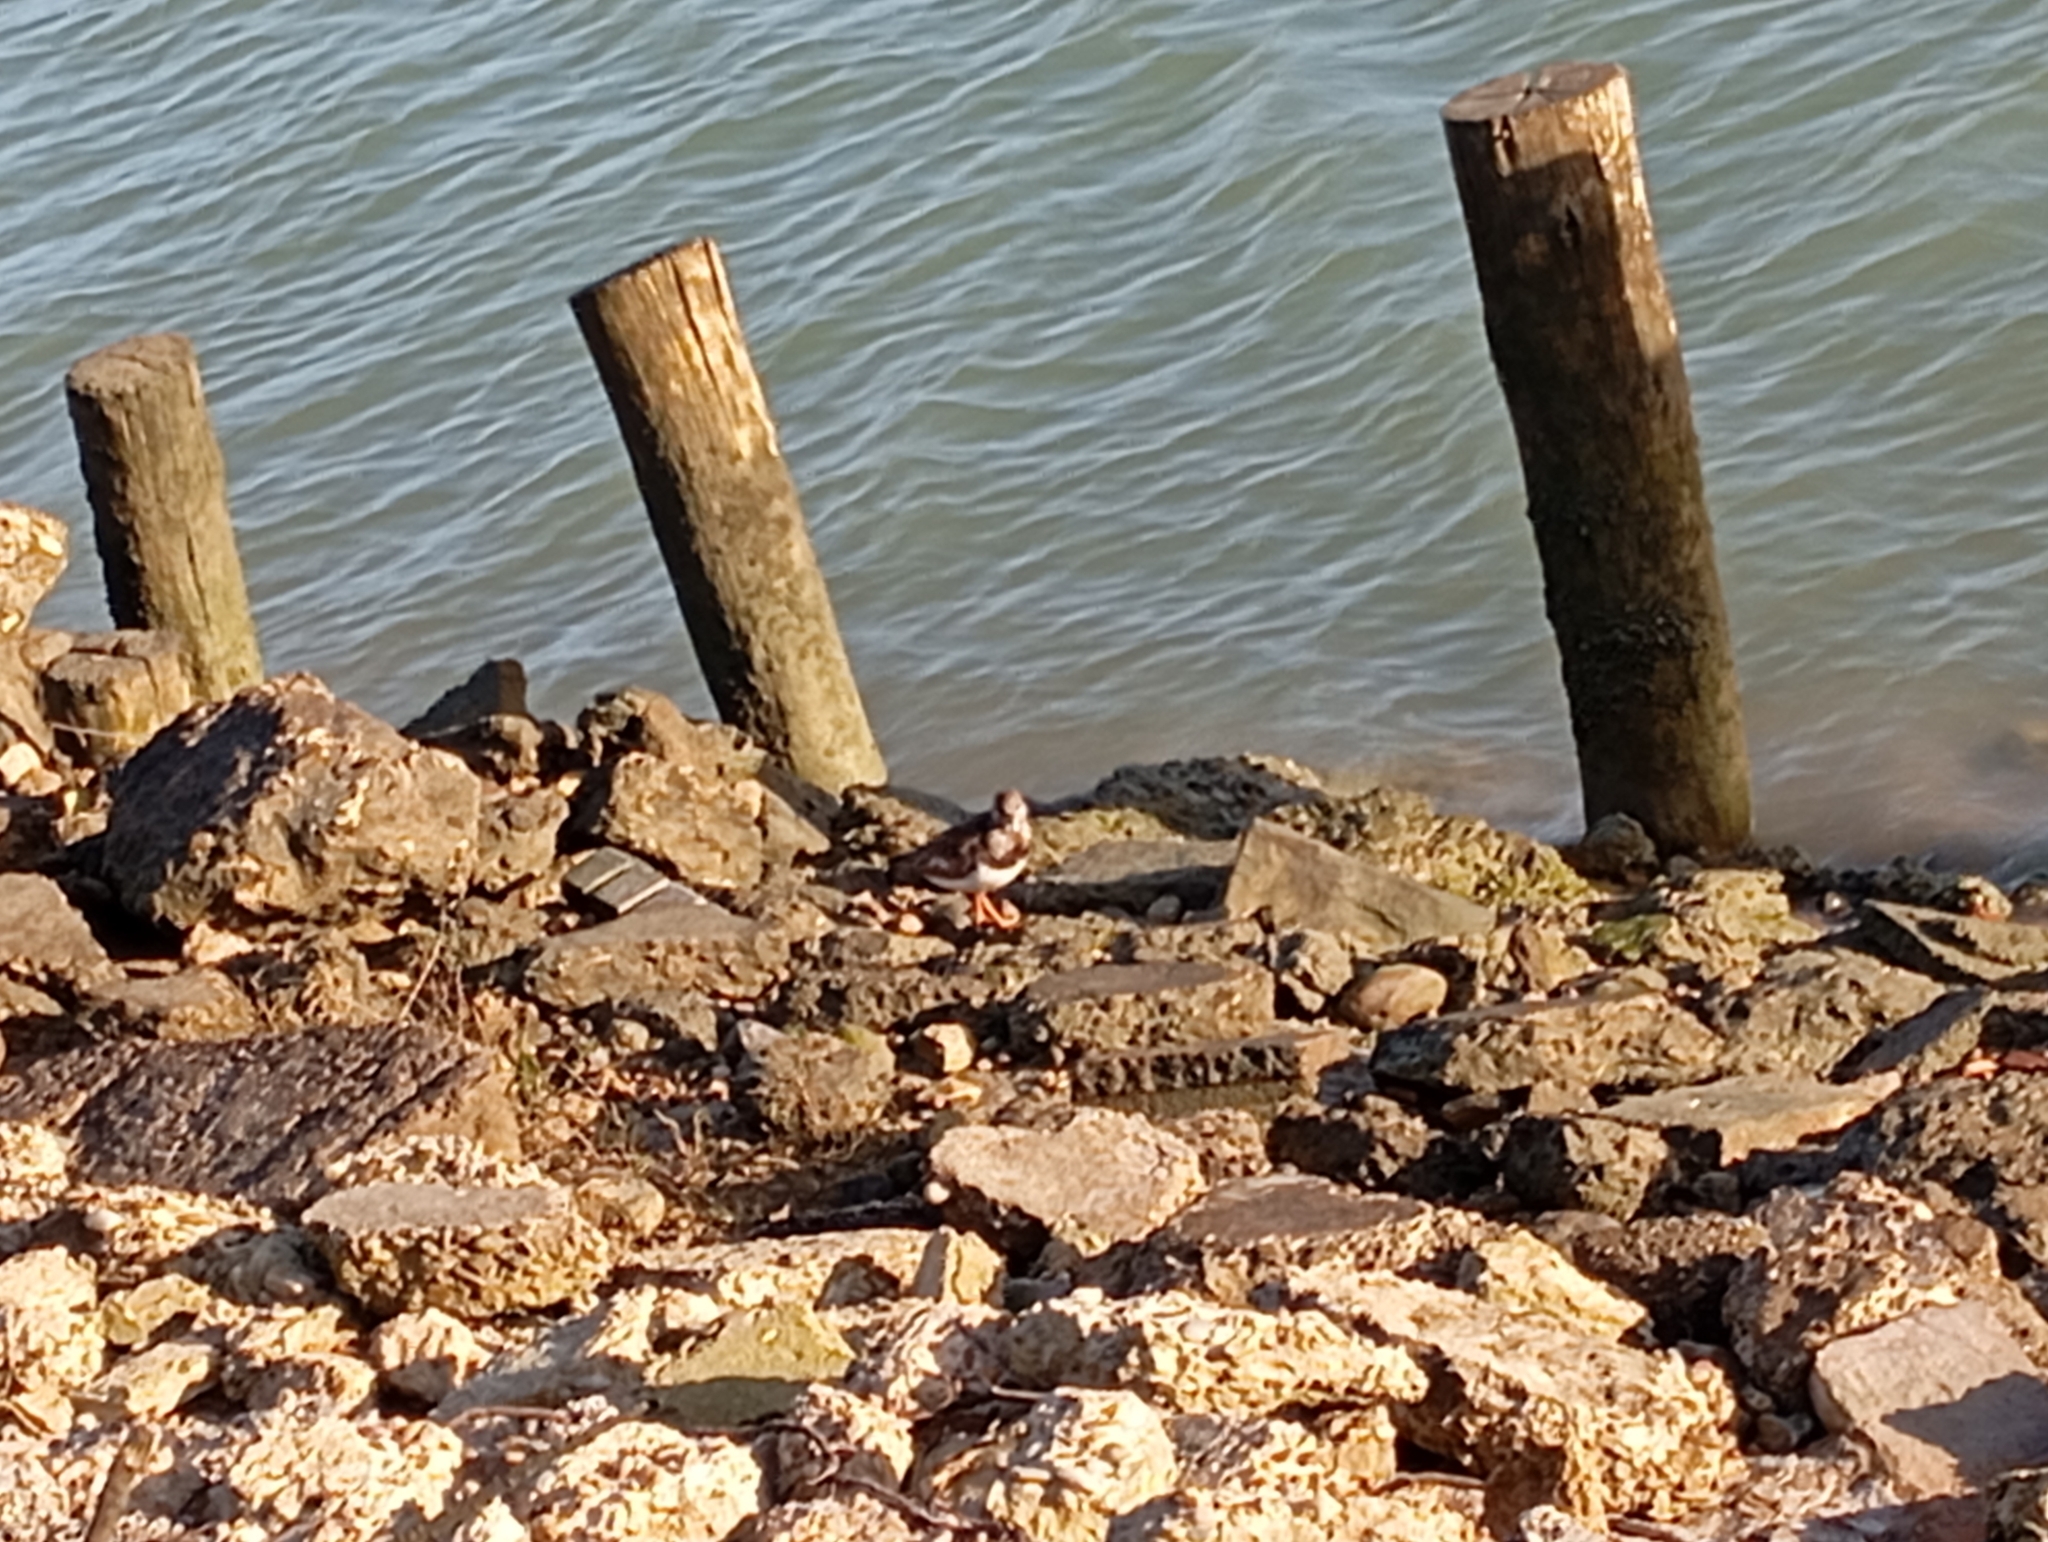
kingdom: Animalia
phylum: Chordata
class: Aves
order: Charadriiformes
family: Scolopacidae
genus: Arenaria
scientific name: Arenaria interpres
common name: Ruddy turnstone
